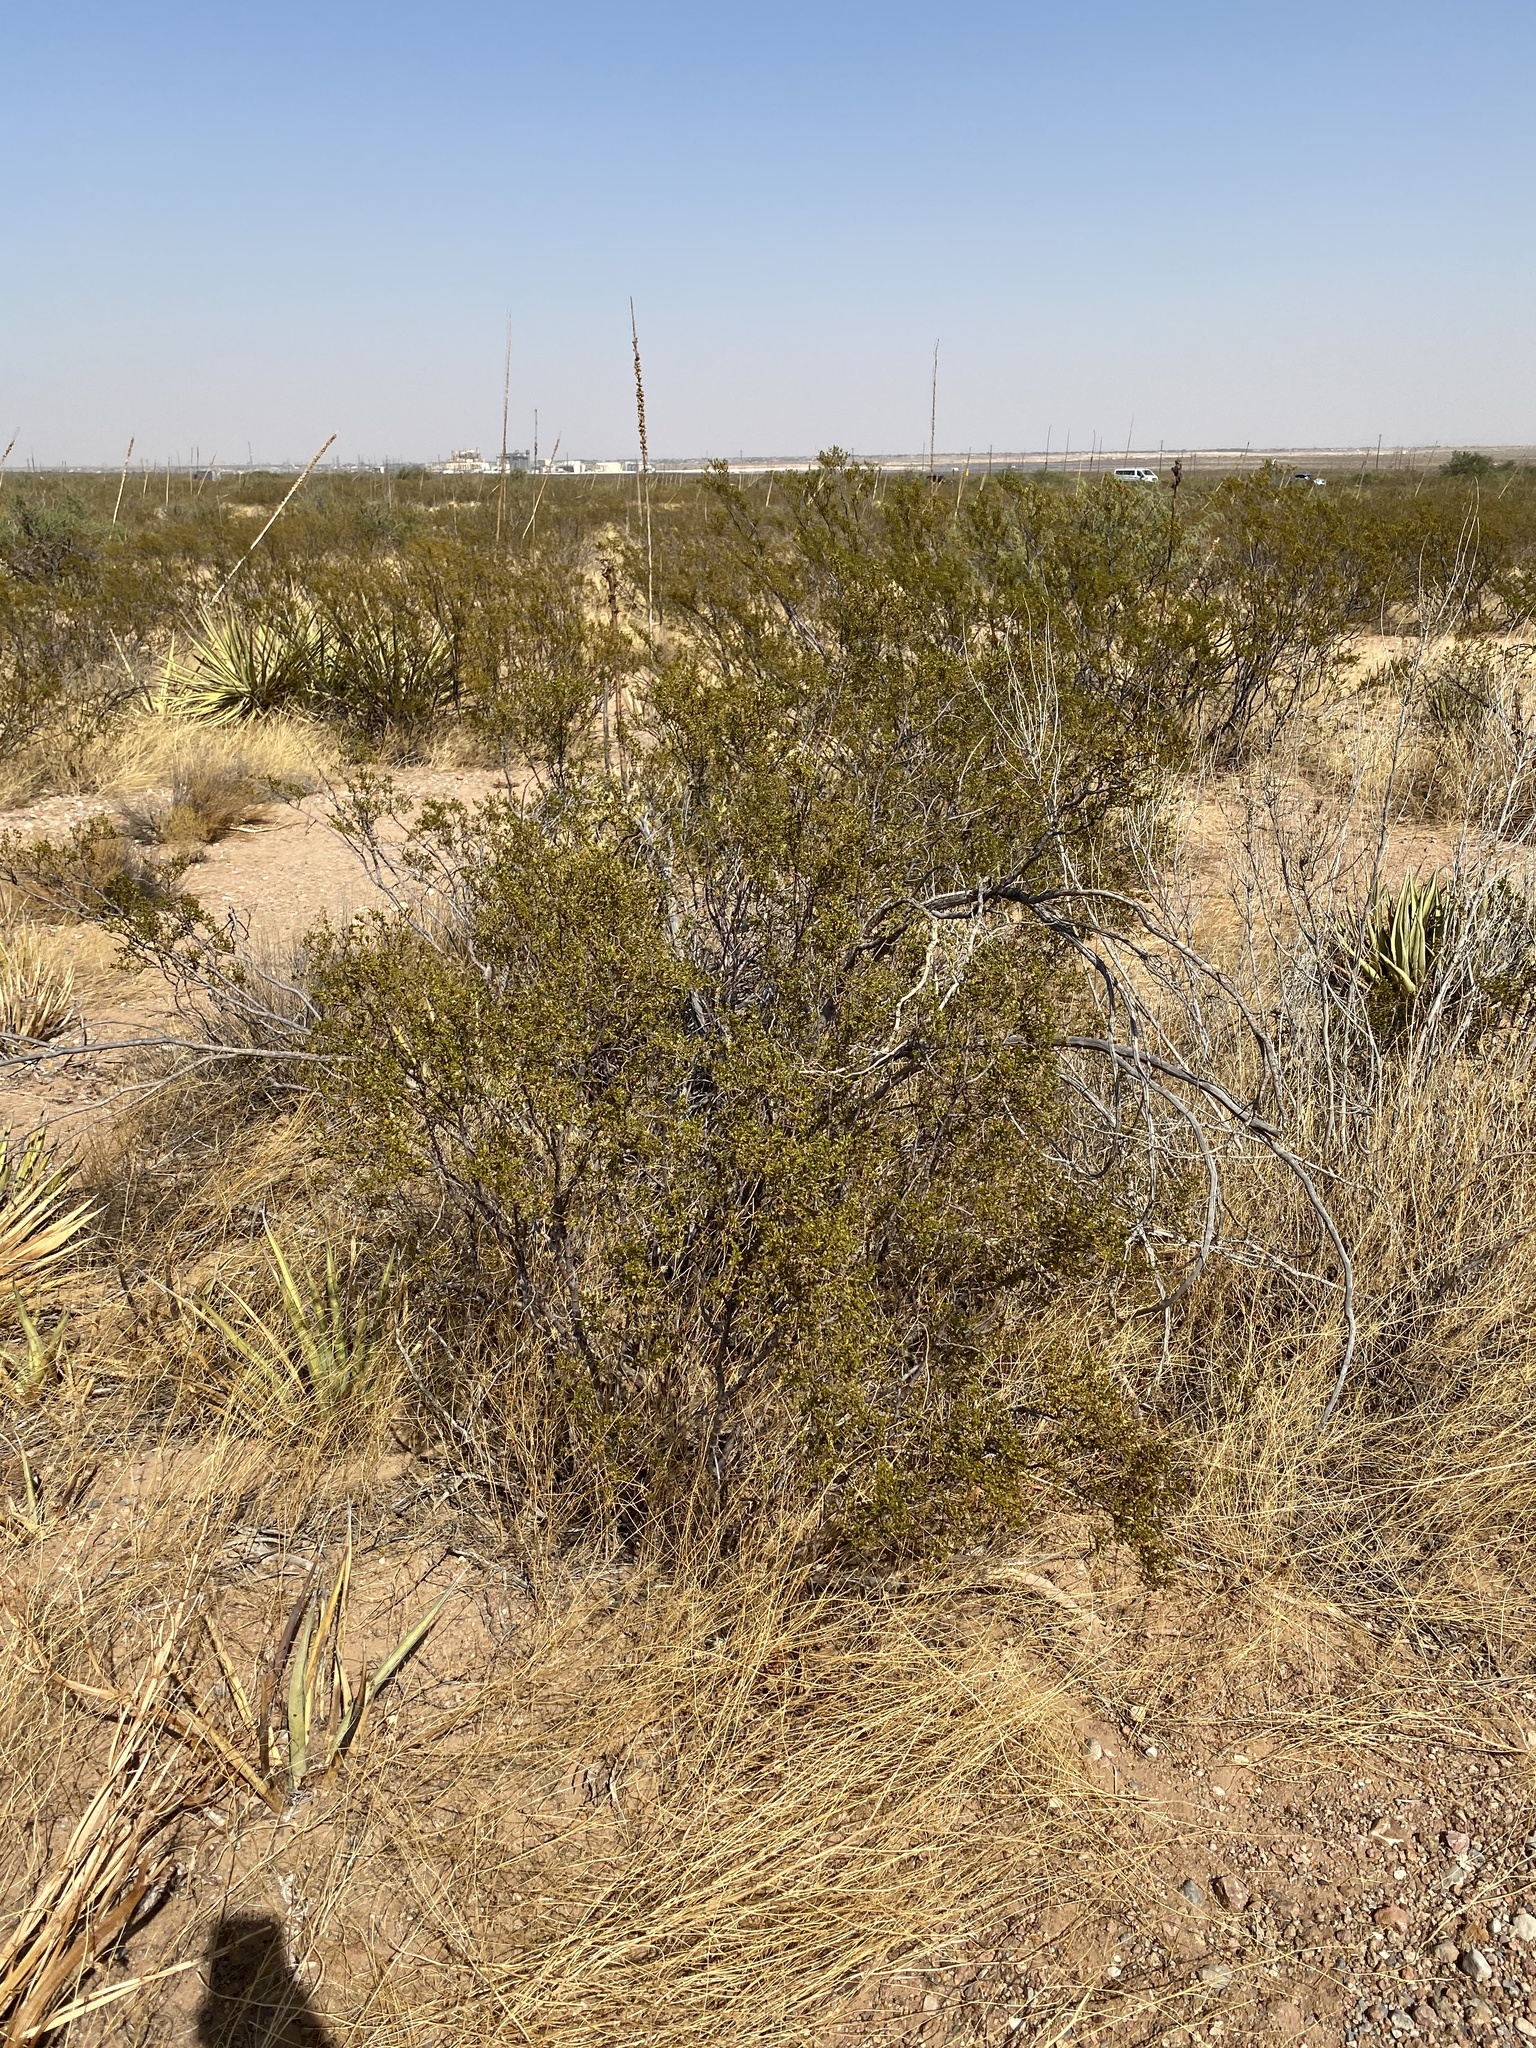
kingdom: Plantae
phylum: Tracheophyta
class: Magnoliopsida
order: Zygophyllales
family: Zygophyllaceae
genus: Larrea
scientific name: Larrea tridentata
